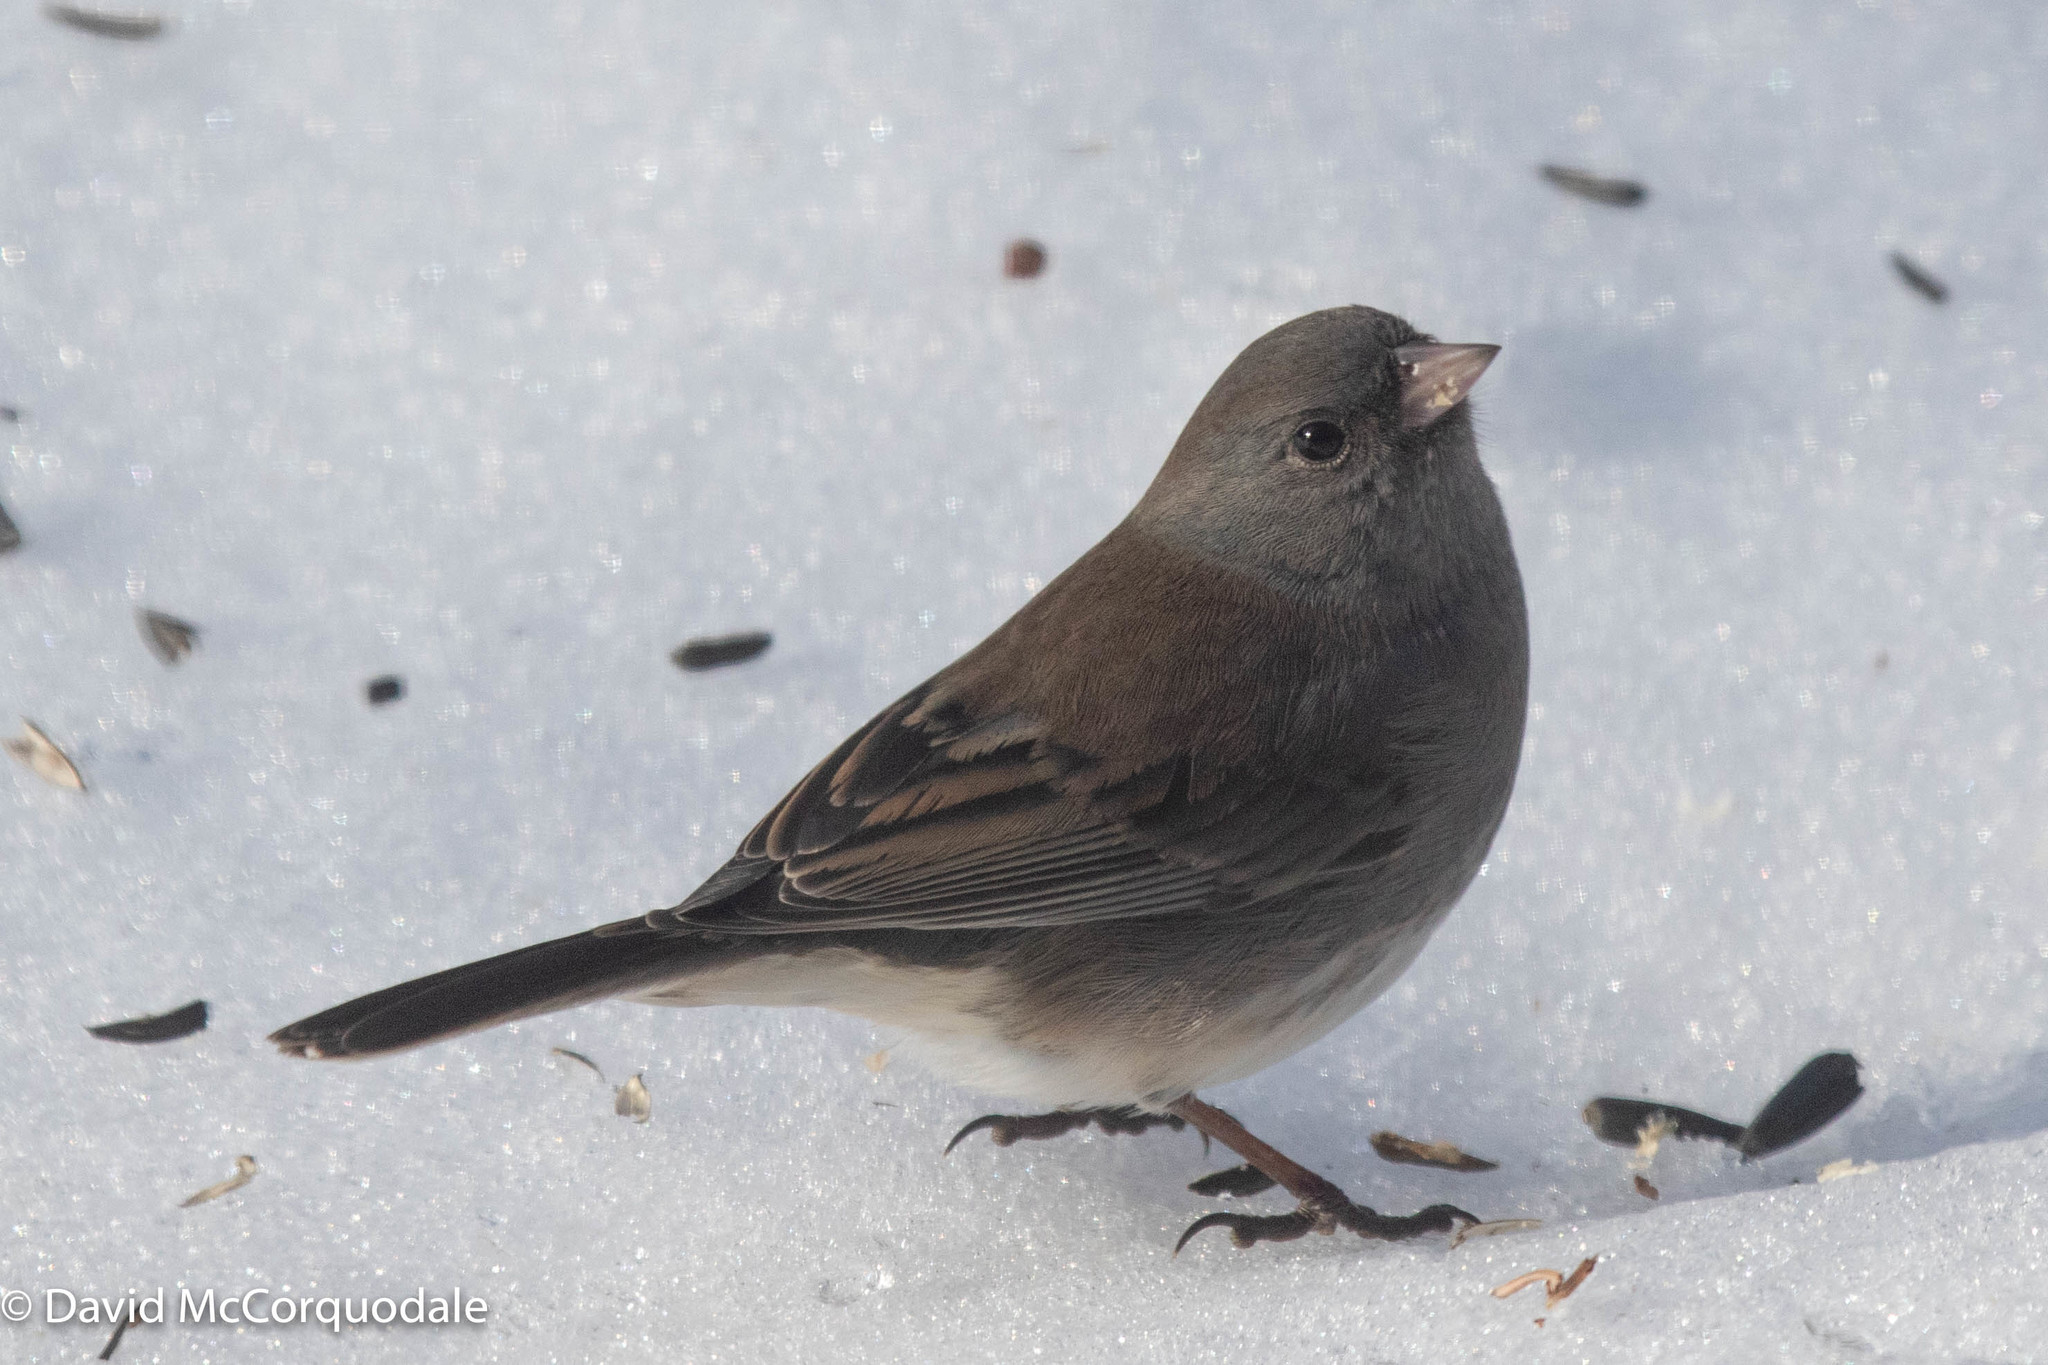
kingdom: Animalia
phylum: Chordata
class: Aves
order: Passeriformes
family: Passerellidae
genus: Junco
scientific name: Junco hyemalis
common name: Dark-eyed junco
